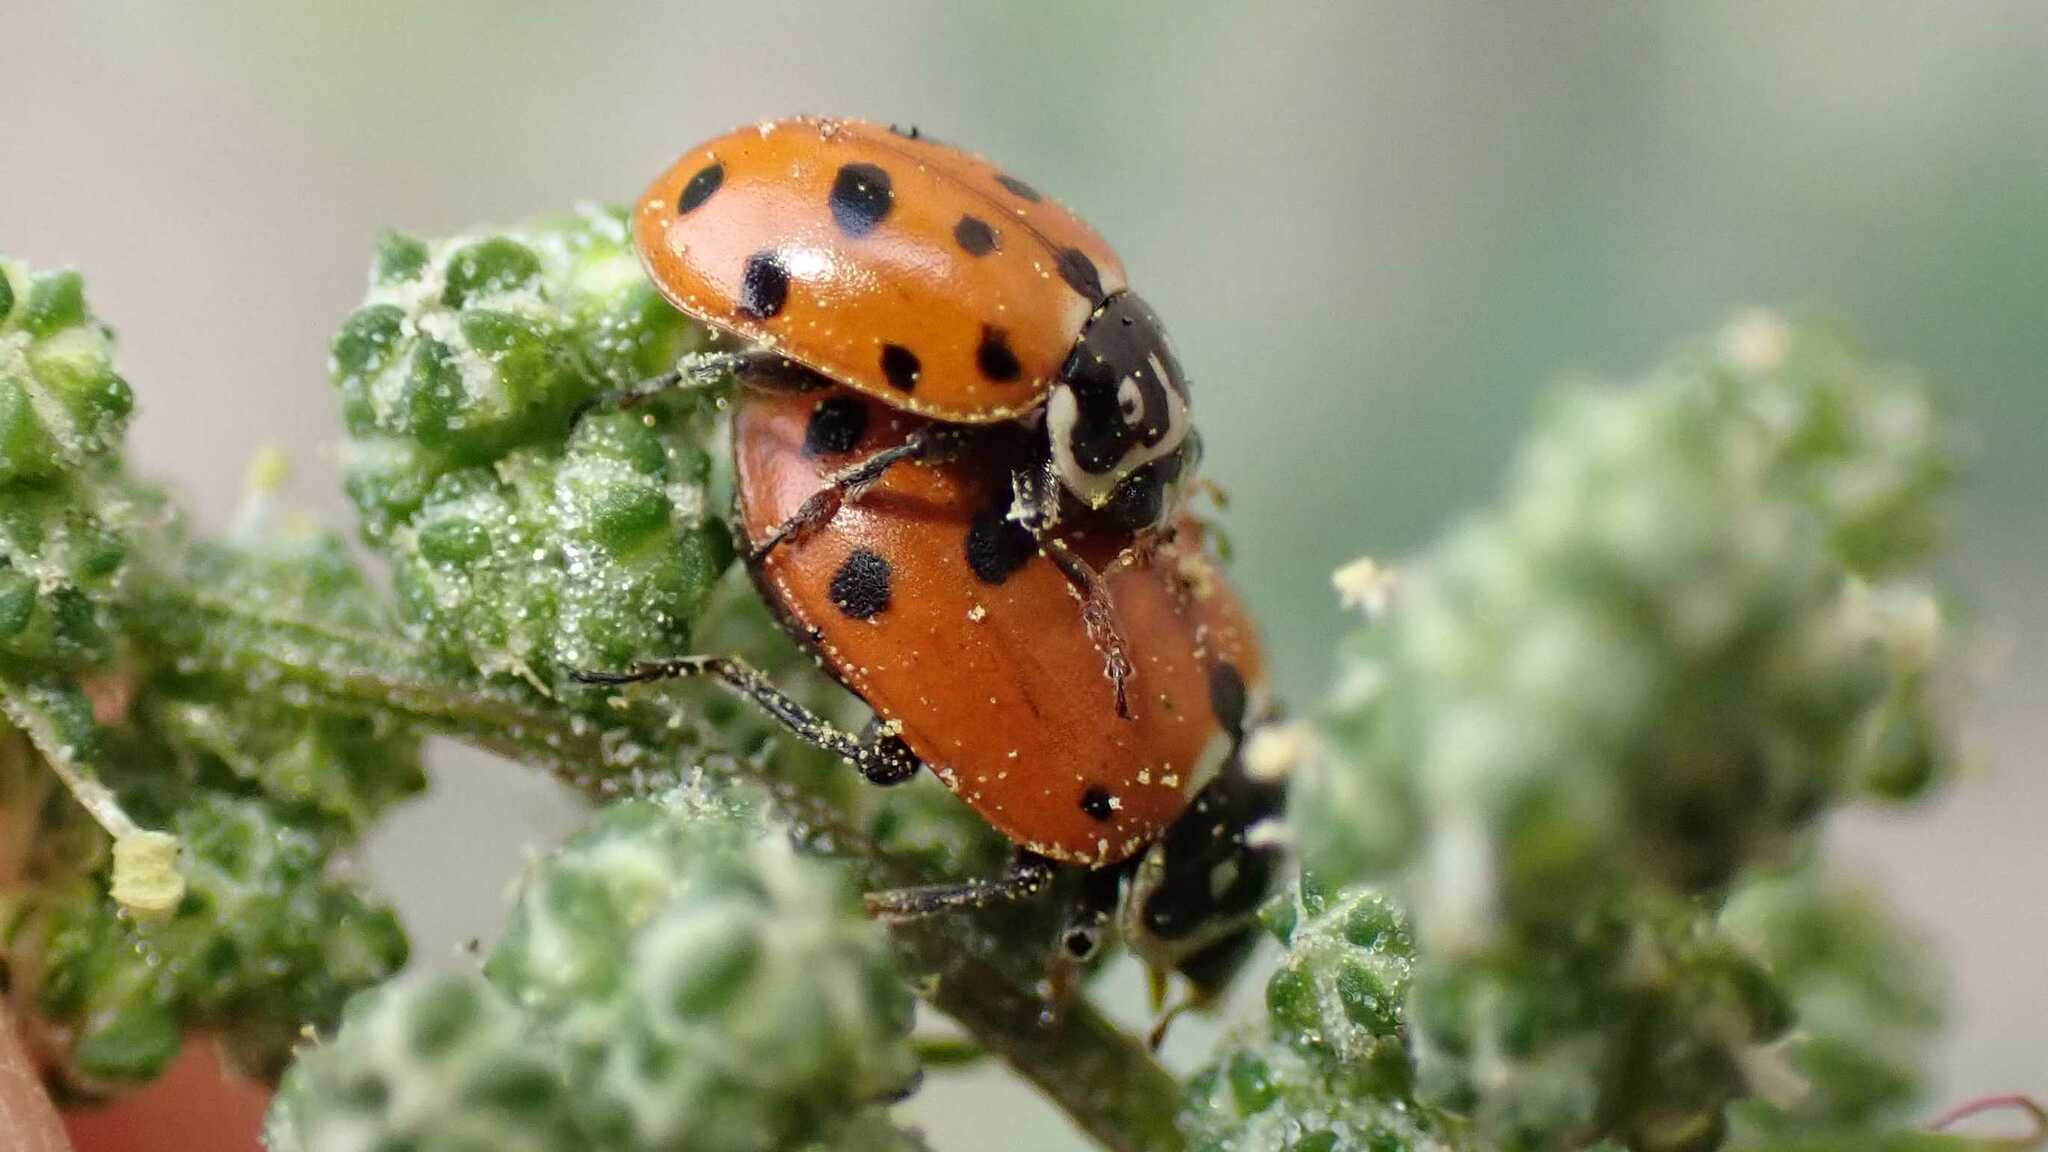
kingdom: Animalia
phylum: Arthropoda
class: Insecta
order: Coleoptera
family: Coccinellidae
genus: Hippodamia
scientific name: Hippodamia variegata
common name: Ladybird beetle
